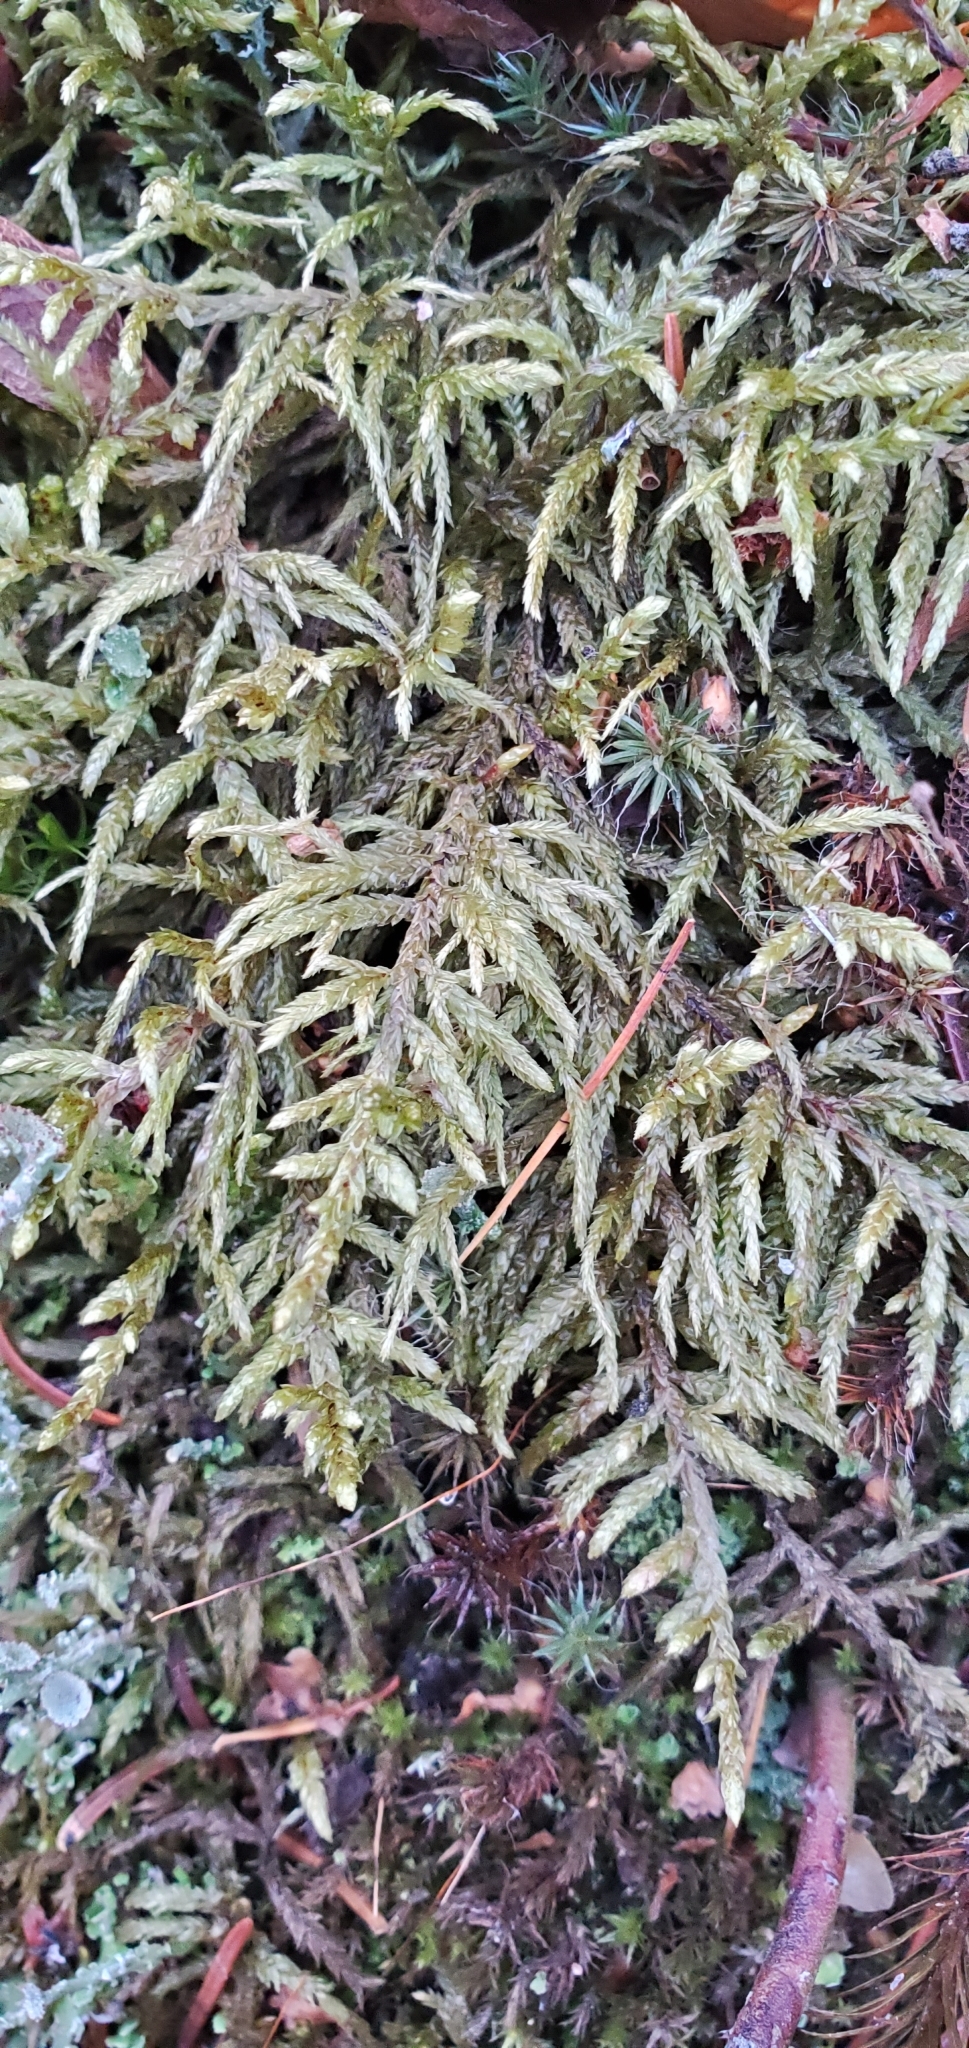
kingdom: Plantae
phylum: Bryophyta
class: Bryopsida
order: Hypnales
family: Hylocomiaceae
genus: Pleurozium
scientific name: Pleurozium schreberi
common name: Red-stemmed feather moss
